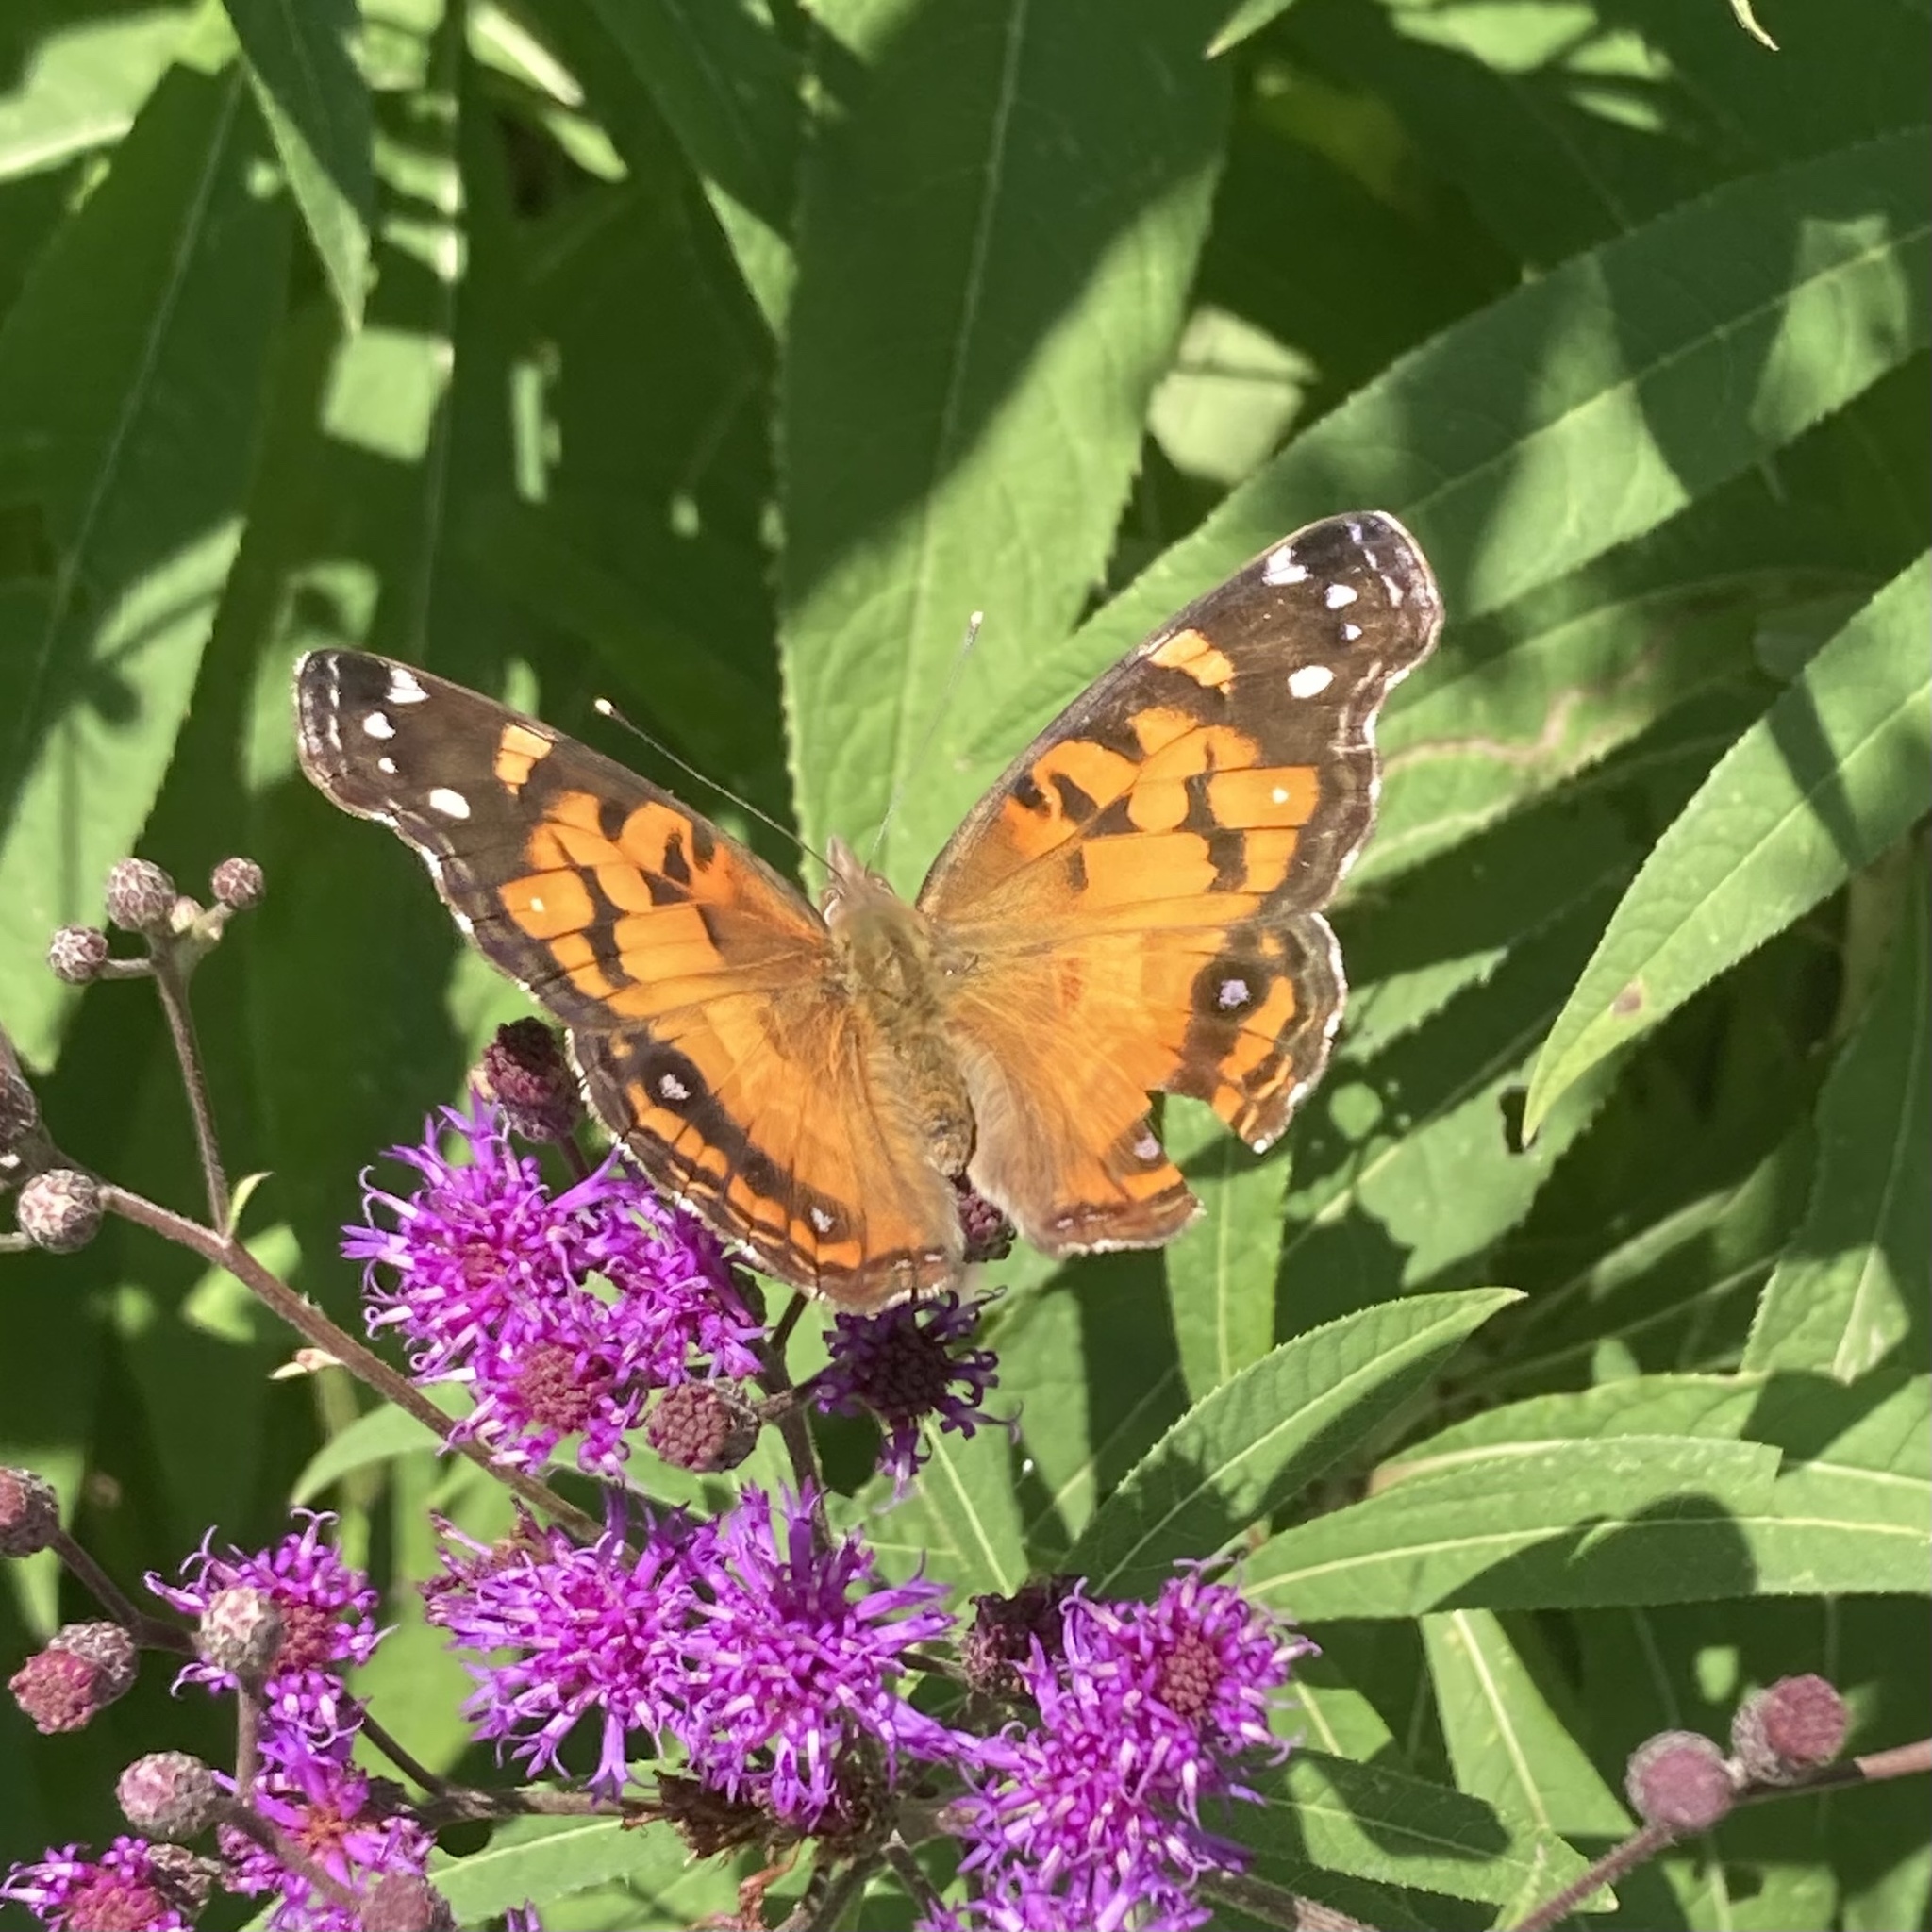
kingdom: Animalia
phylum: Arthropoda
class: Insecta
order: Lepidoptera
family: Nymphalidae
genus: Vanessa
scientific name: Vanessa virginiensis
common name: American lady
